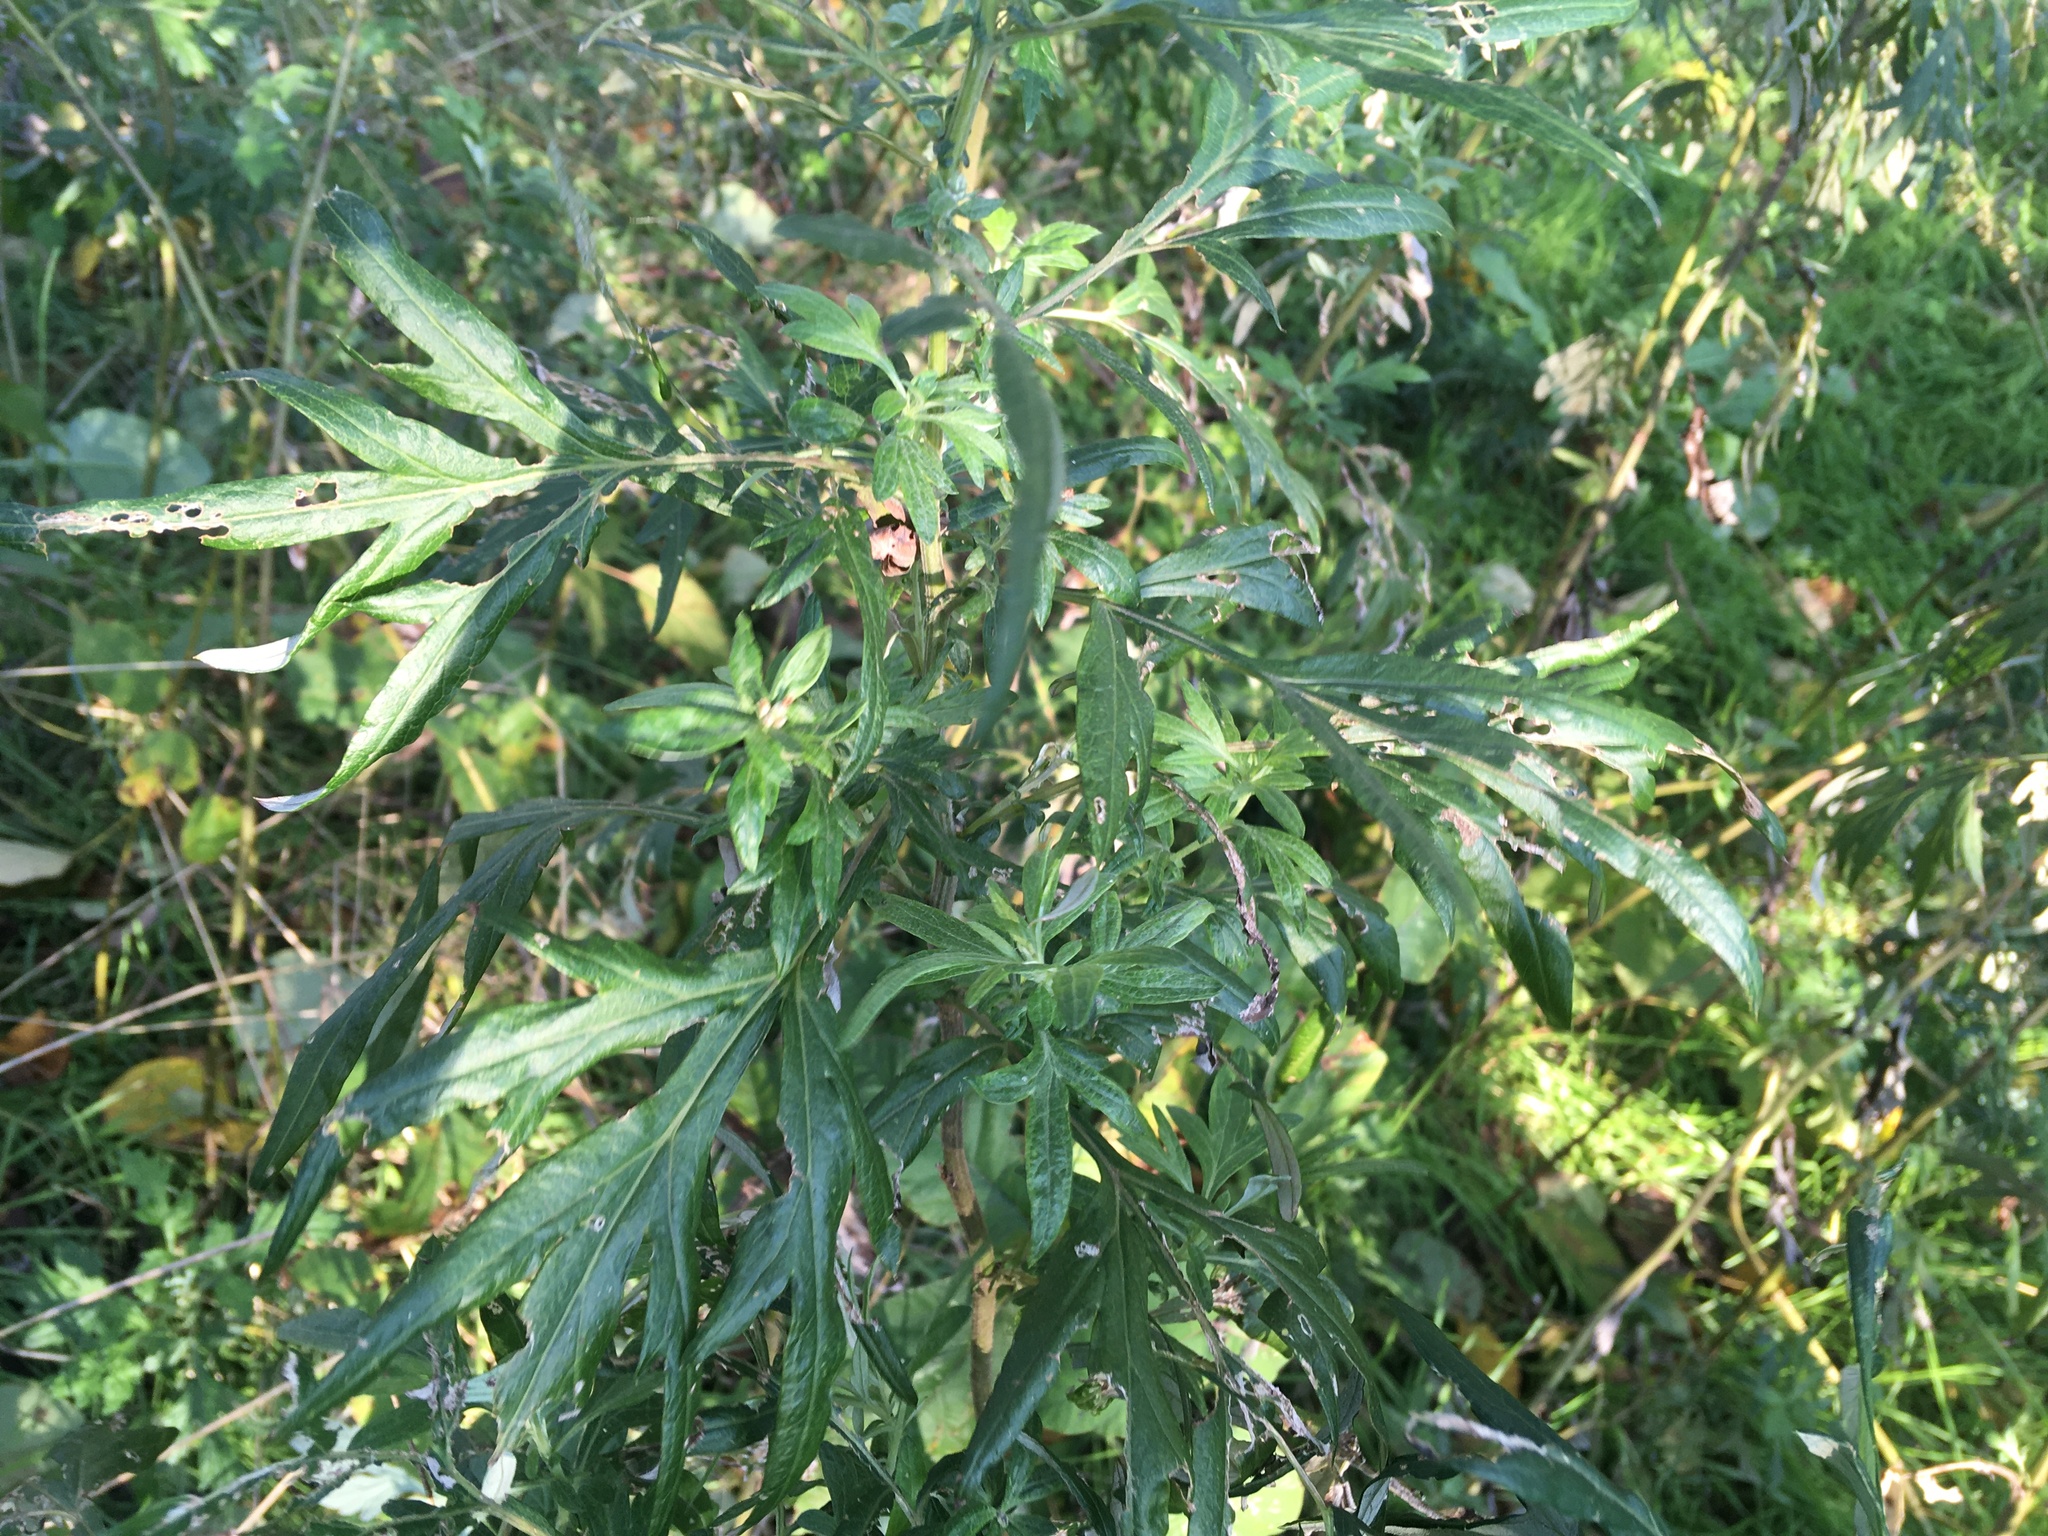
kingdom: Plantae
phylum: Tracheophyta
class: Magnoliopsida
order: Asterales
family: Asteraceae
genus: Artemisia
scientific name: Artemisia vulgaris
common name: Mugwort
